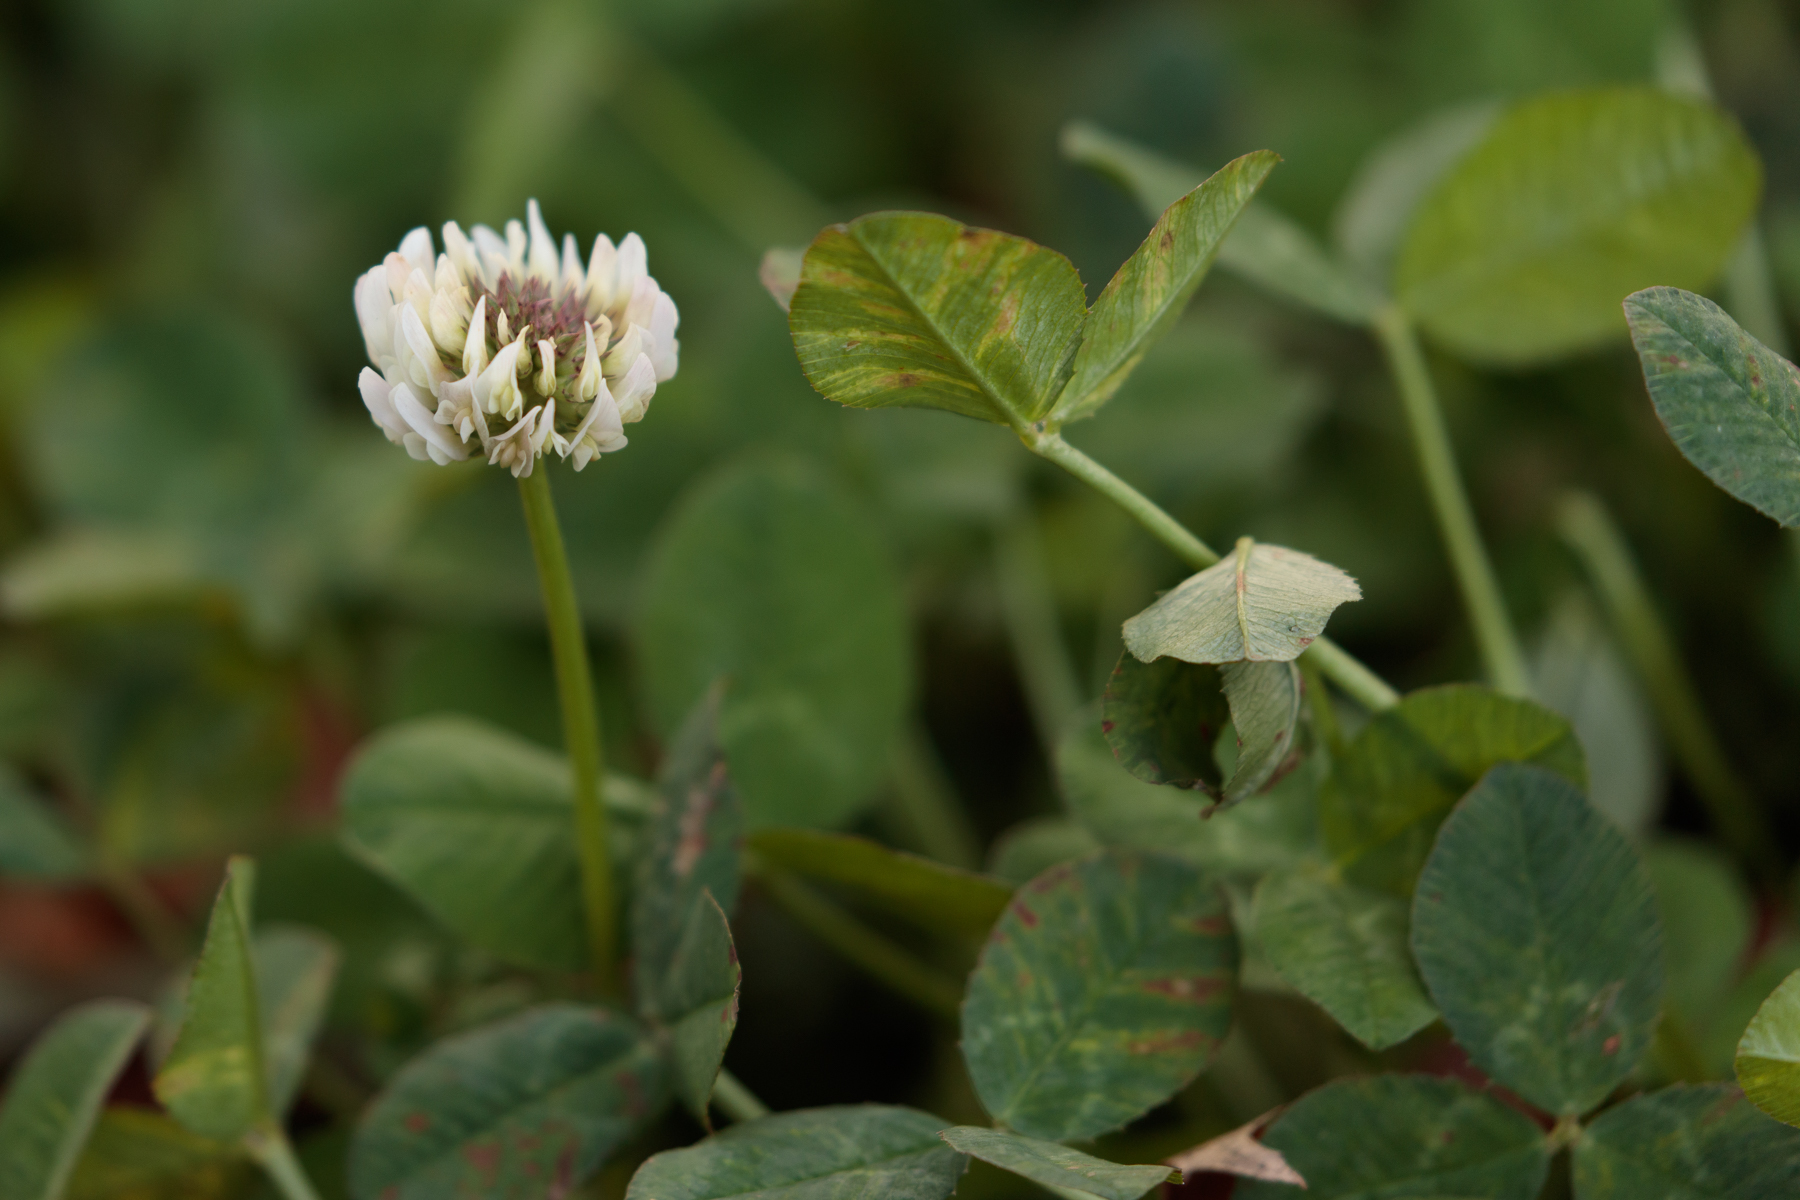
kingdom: Plantae
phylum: Tracheophyta
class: Magnoliopsida
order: Fabales
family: Fabaceae
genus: Trifolium
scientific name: Trifolium repens
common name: White clover
